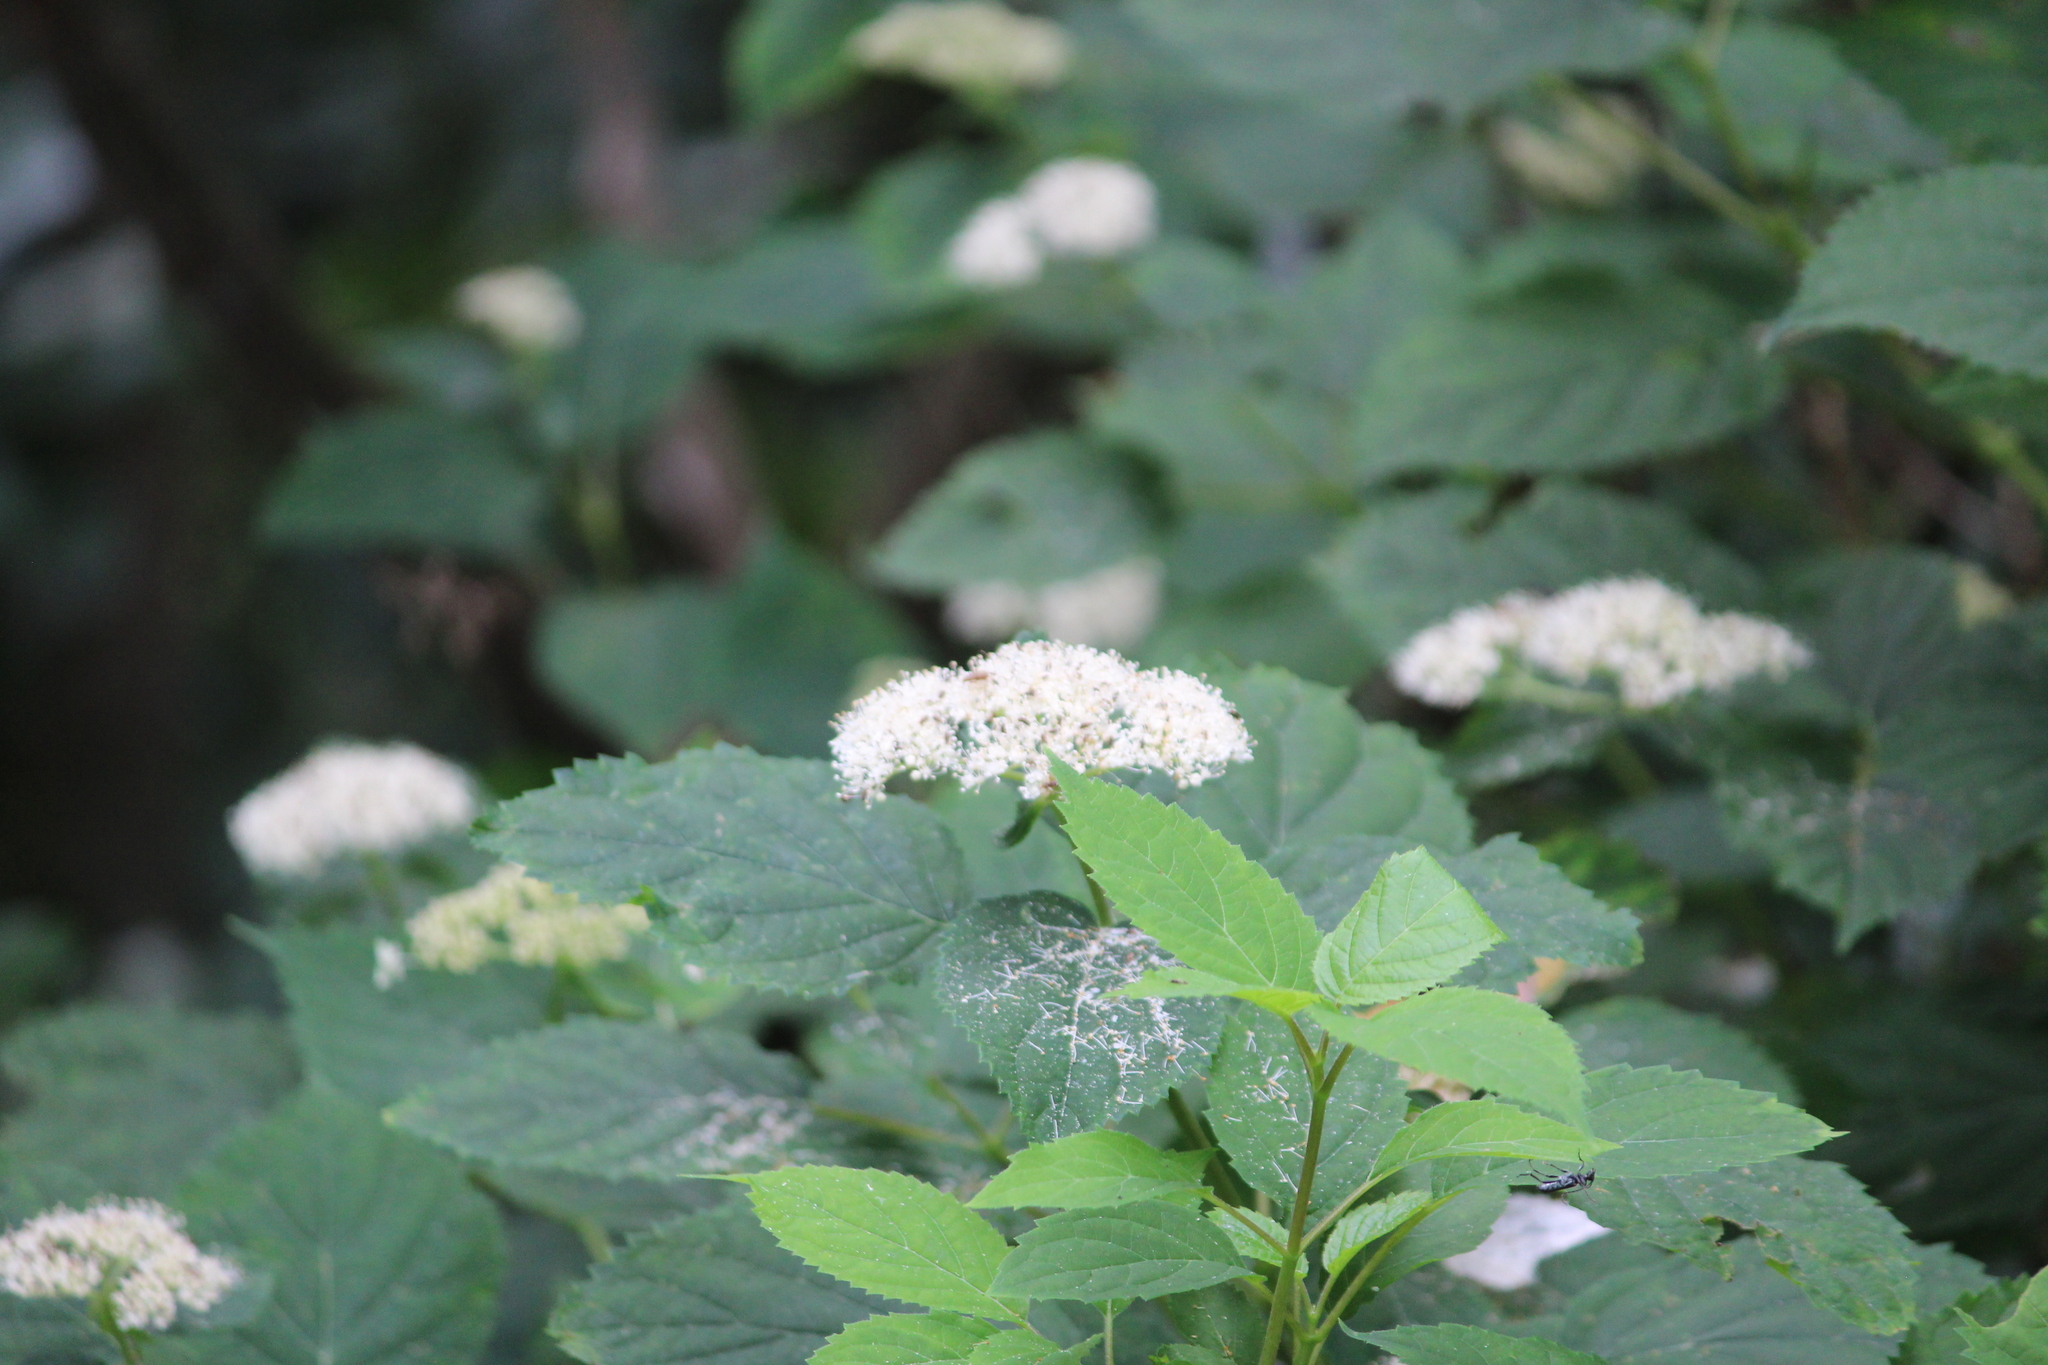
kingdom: Plantae
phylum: Tracheophyta
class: Magnoliopsida
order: Cornales
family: Hydrangeaceae
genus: Hydrangea
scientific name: Hydrangea arborescens
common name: Sevenbark
